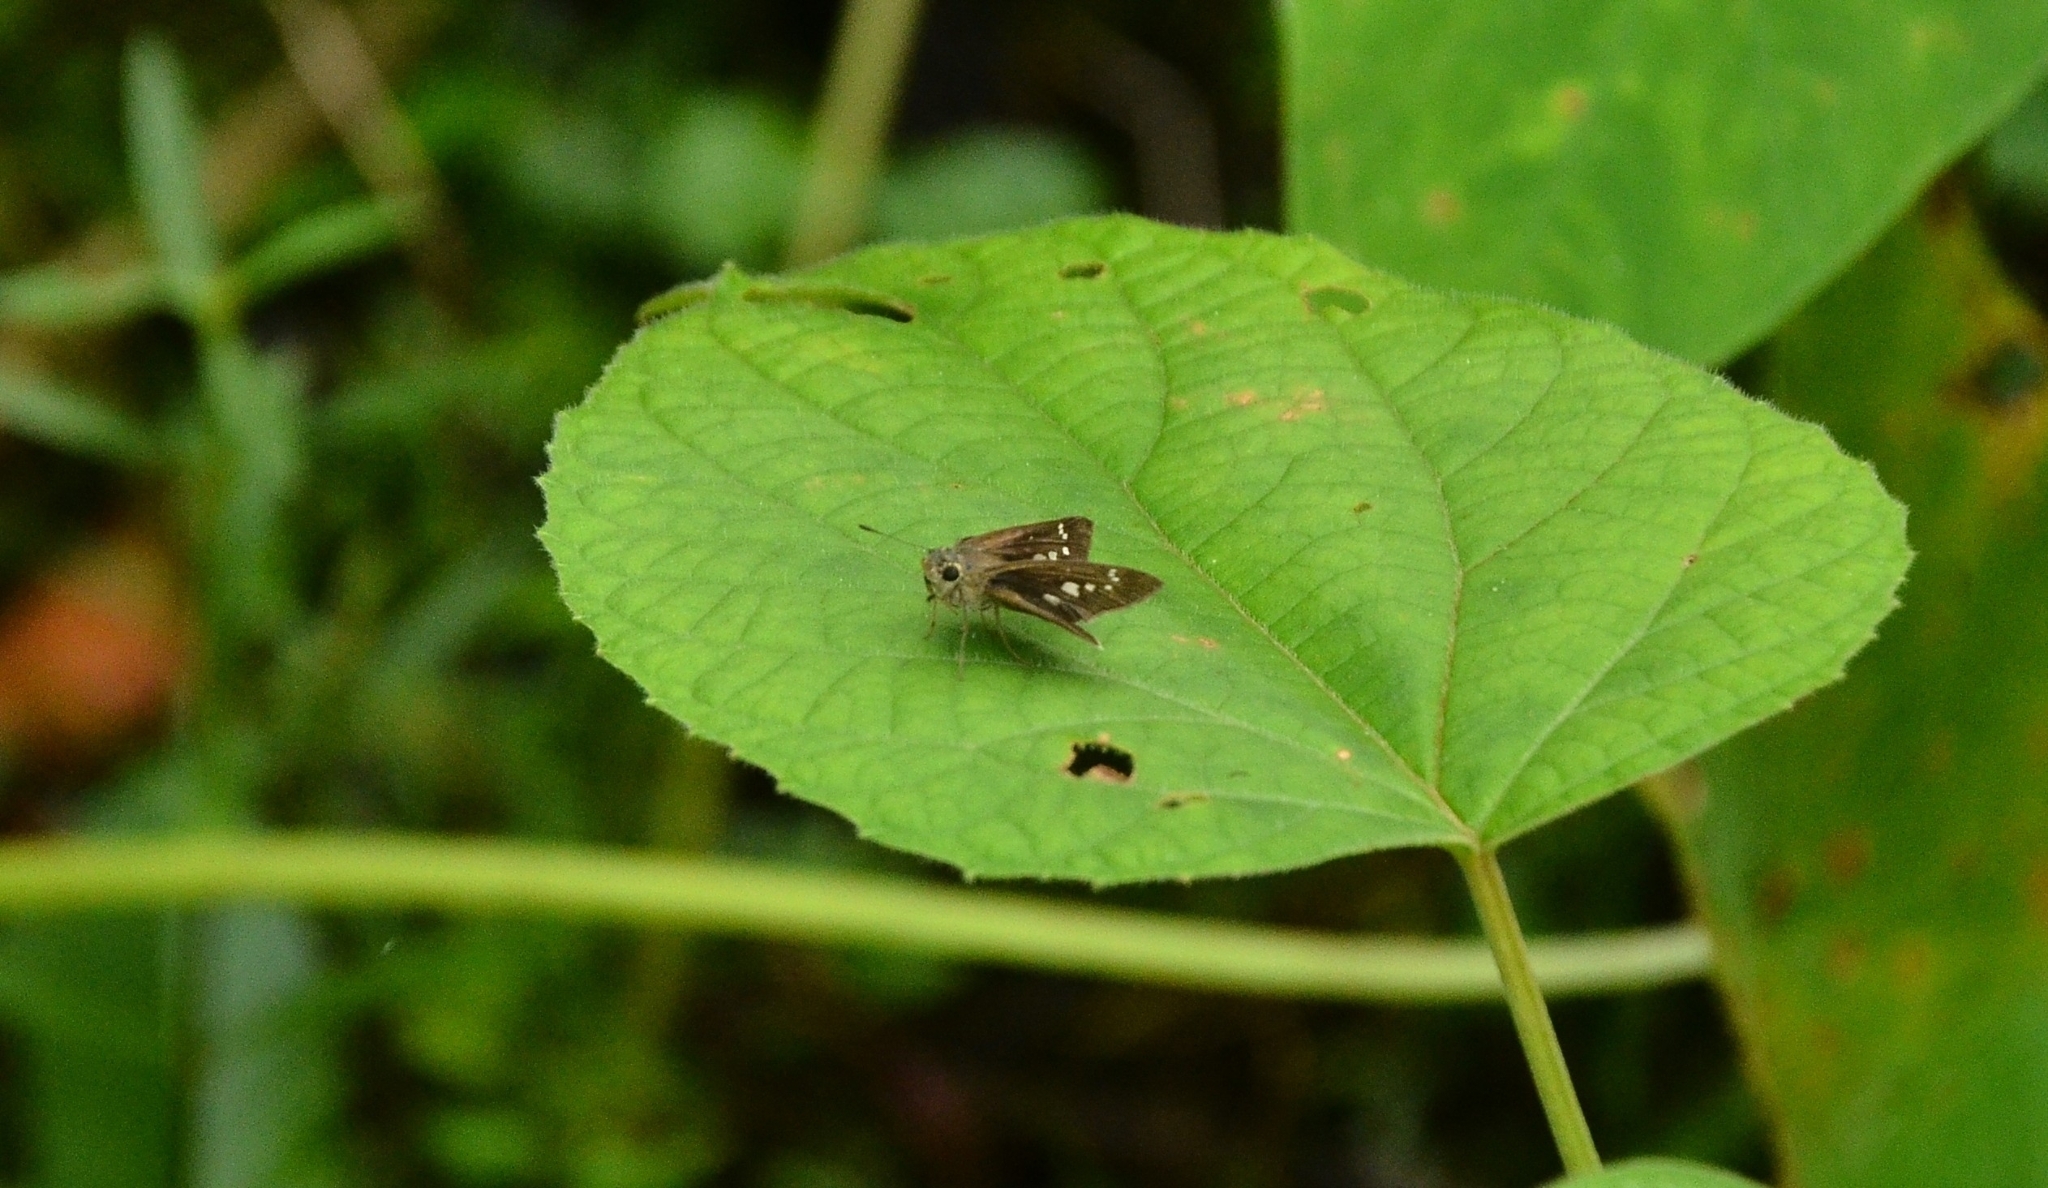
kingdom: Animalia
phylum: Arthropoda
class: Insecta
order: Lepidoptera
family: Hesperiidae
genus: Pseudoborbo
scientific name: Pseudoborbo bevani
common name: Bevan's swift
